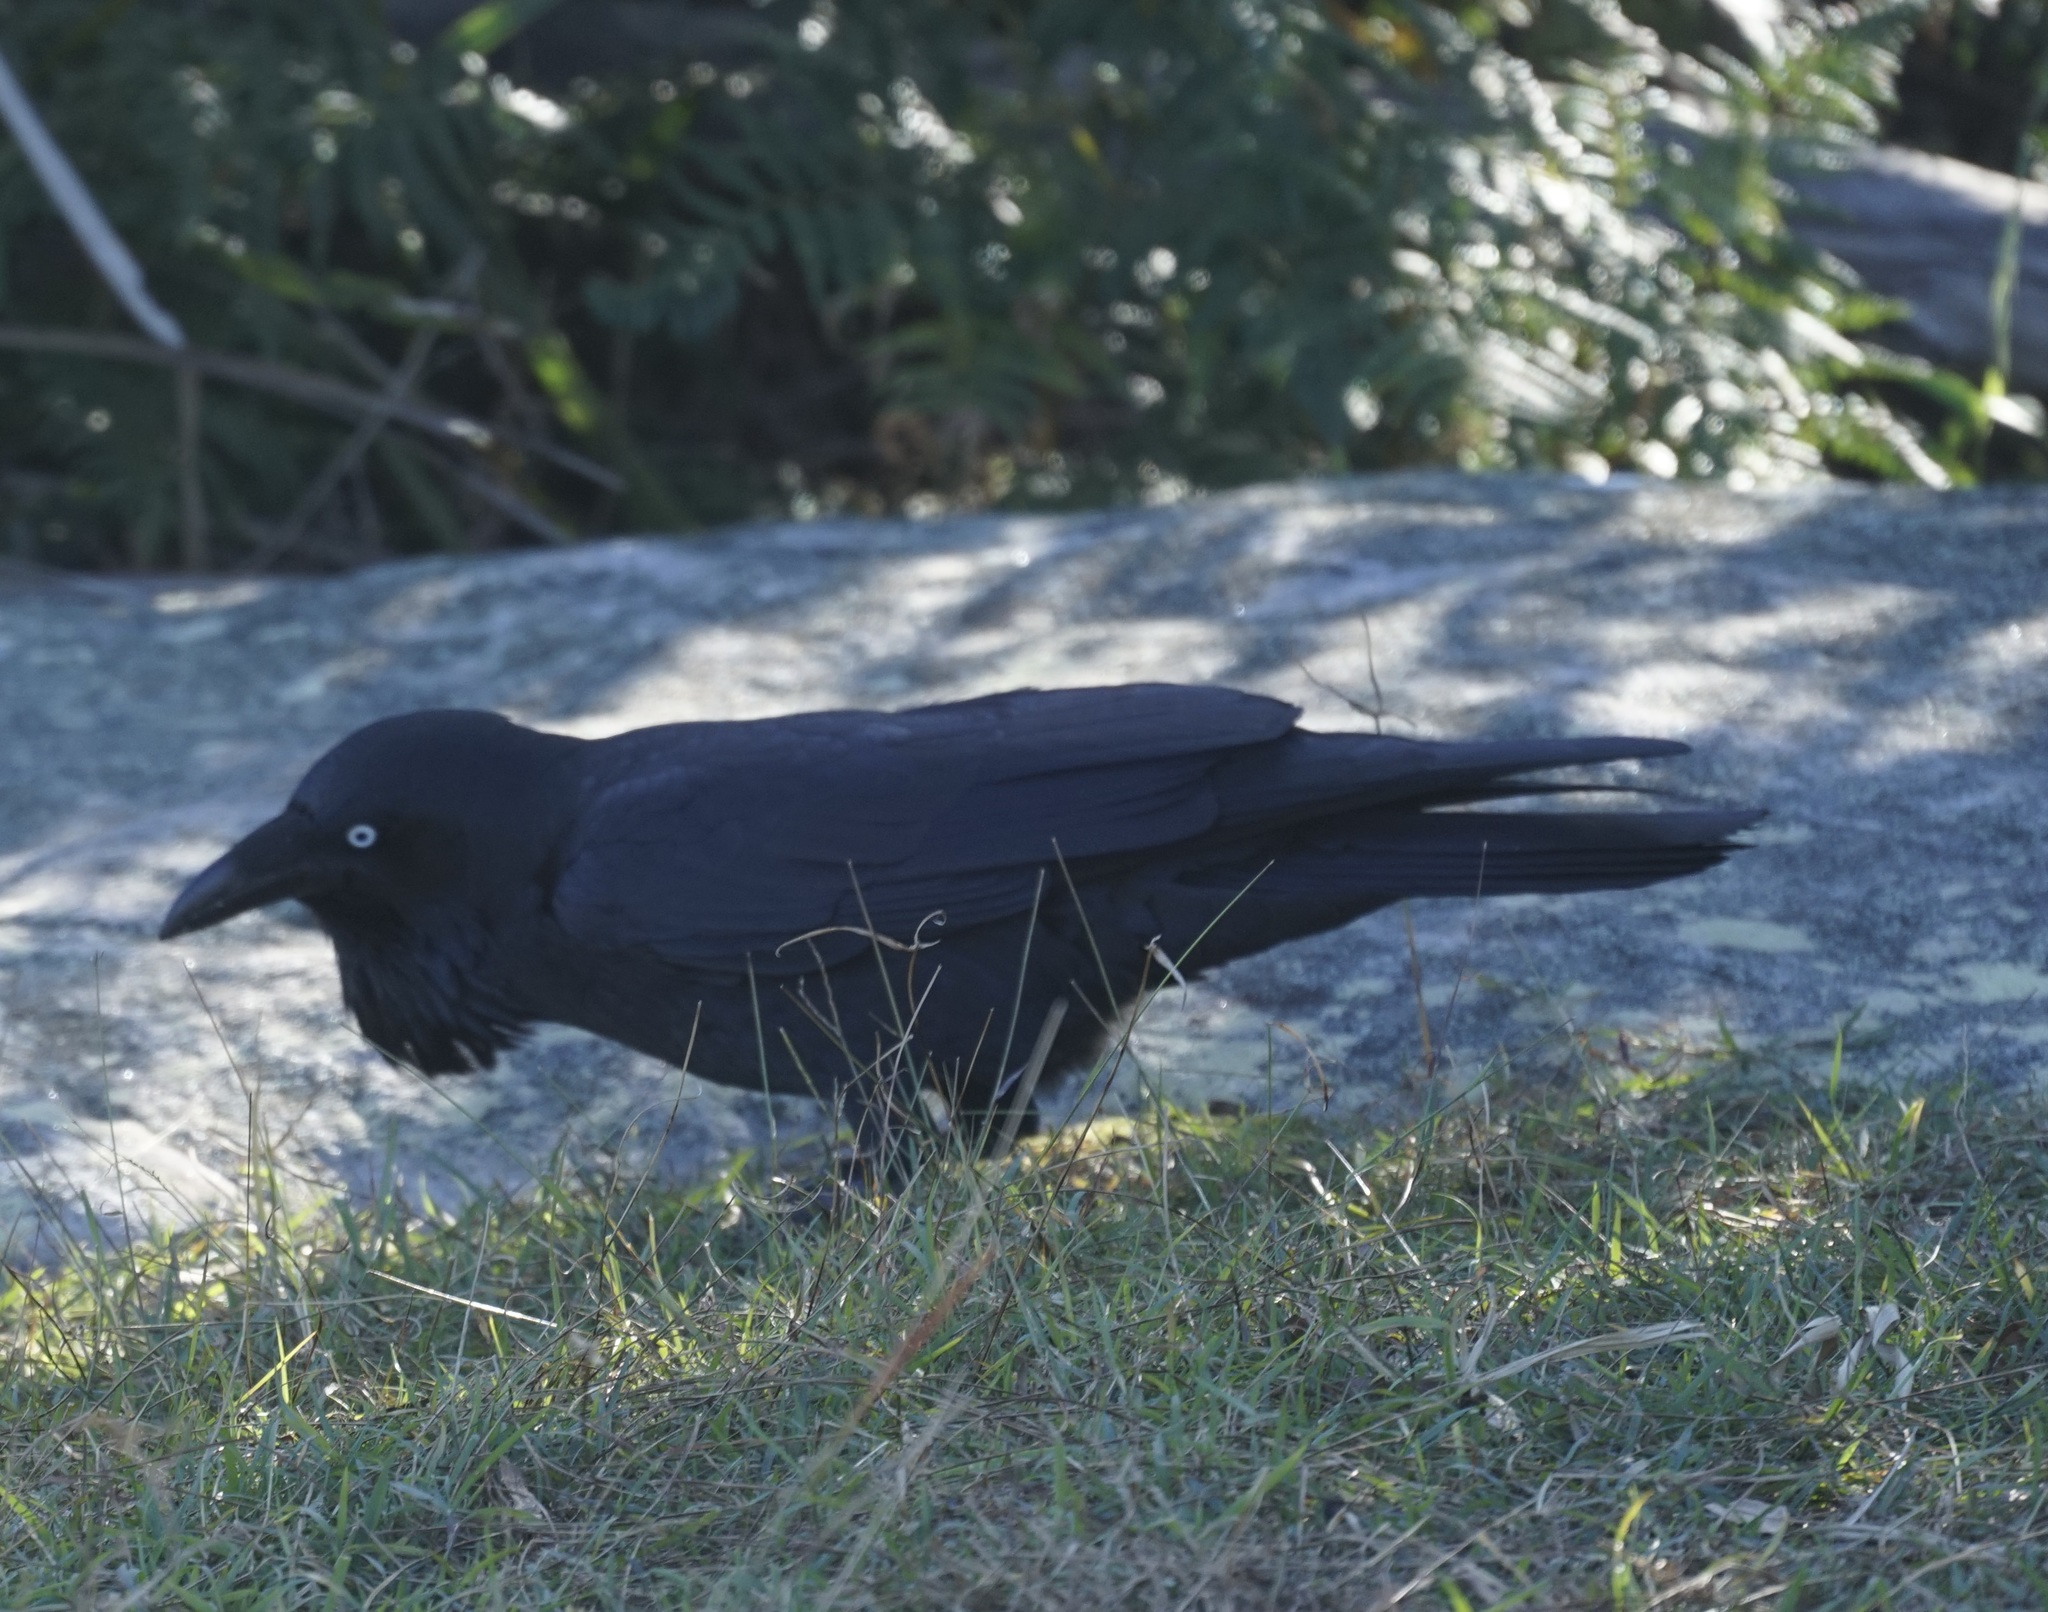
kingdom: Animalia
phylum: Chordata
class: Aves
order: Passeriformes
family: Corvidae
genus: Corvus
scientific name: Corvus coronoides
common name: Australian raven
